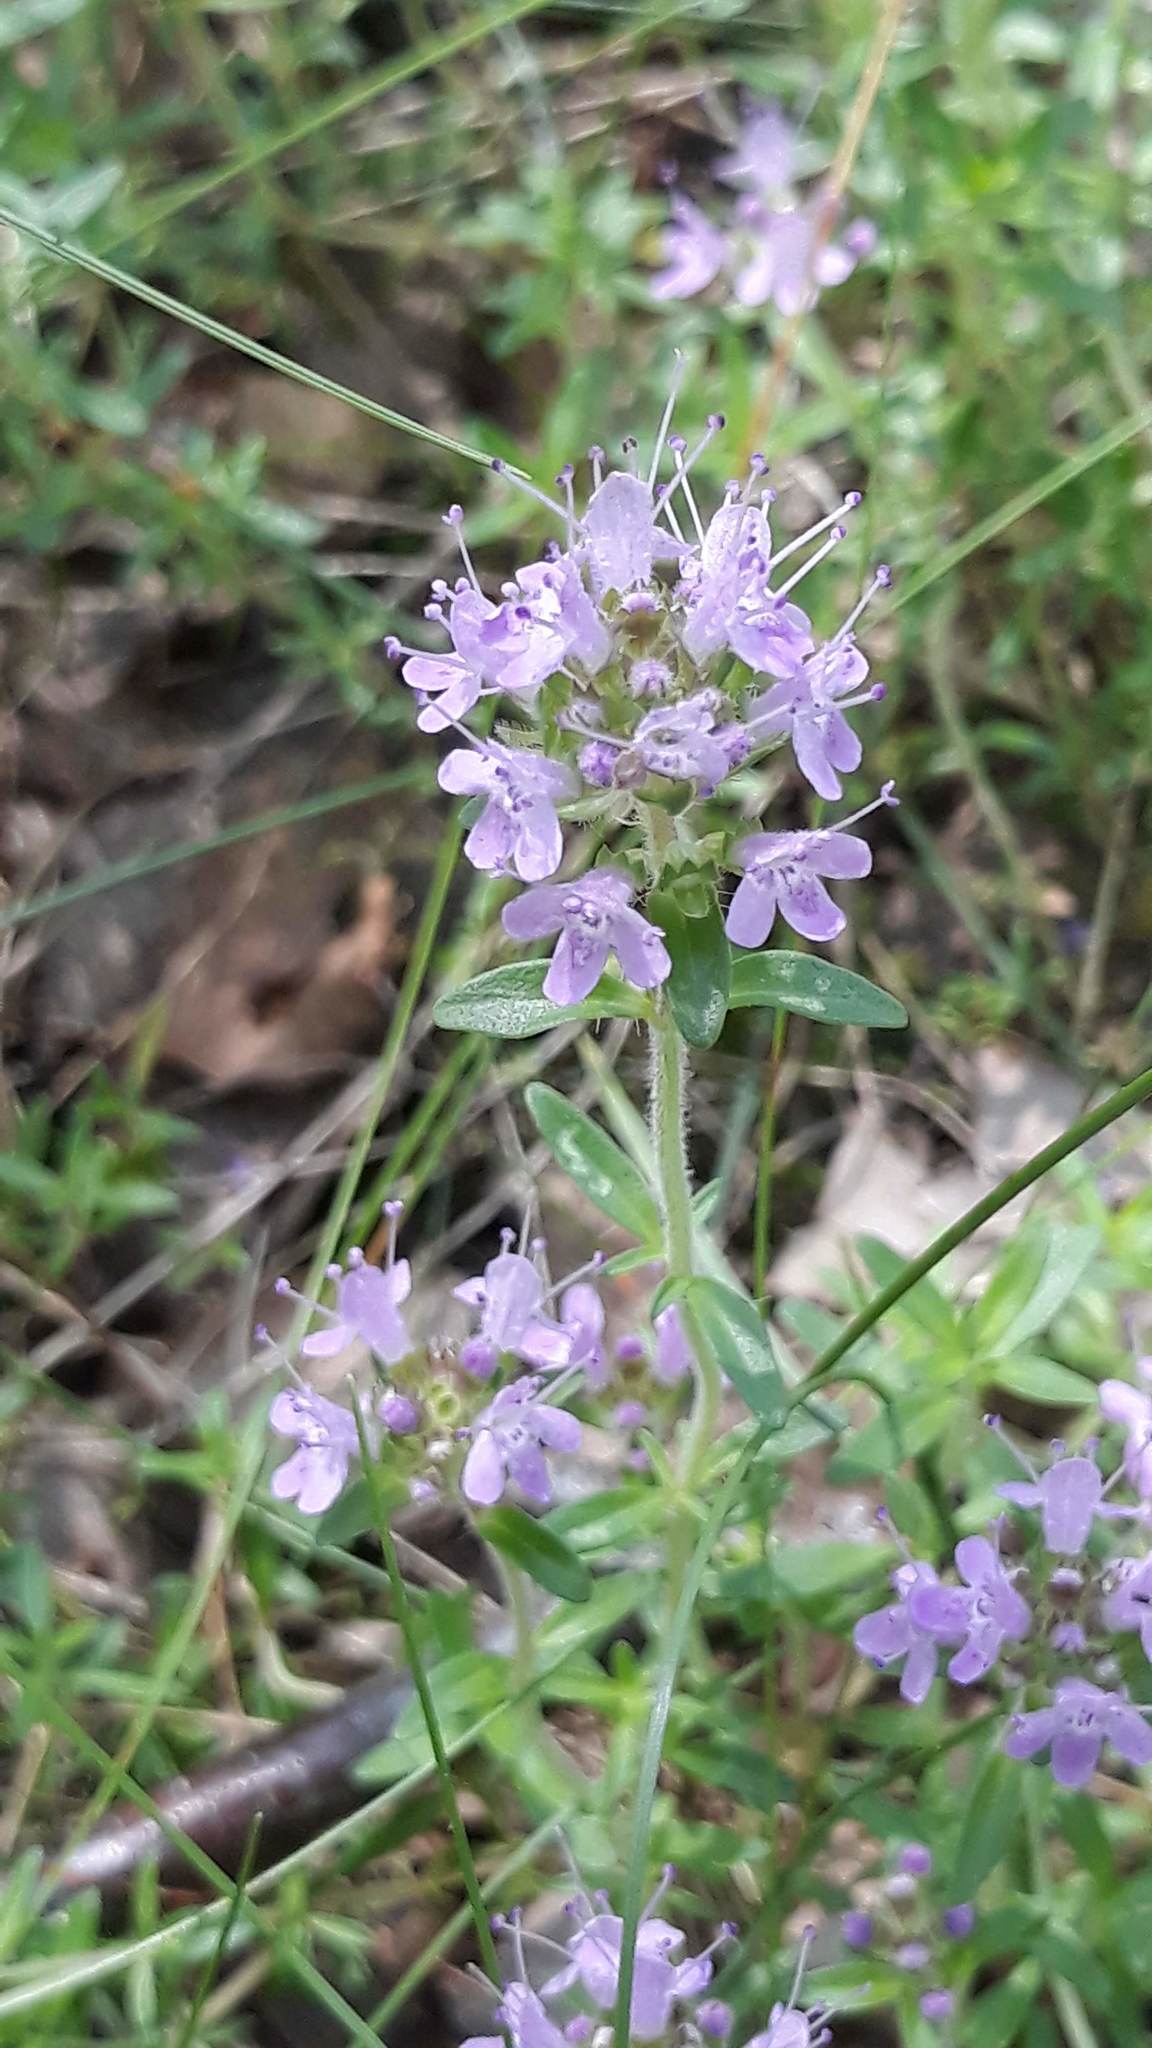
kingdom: Plantae
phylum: Tracheophyta
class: Magnoliopsida
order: Lamiales
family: Lamiaceae
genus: Thymus
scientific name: Thymus serpyllum
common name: Breckland thyme
